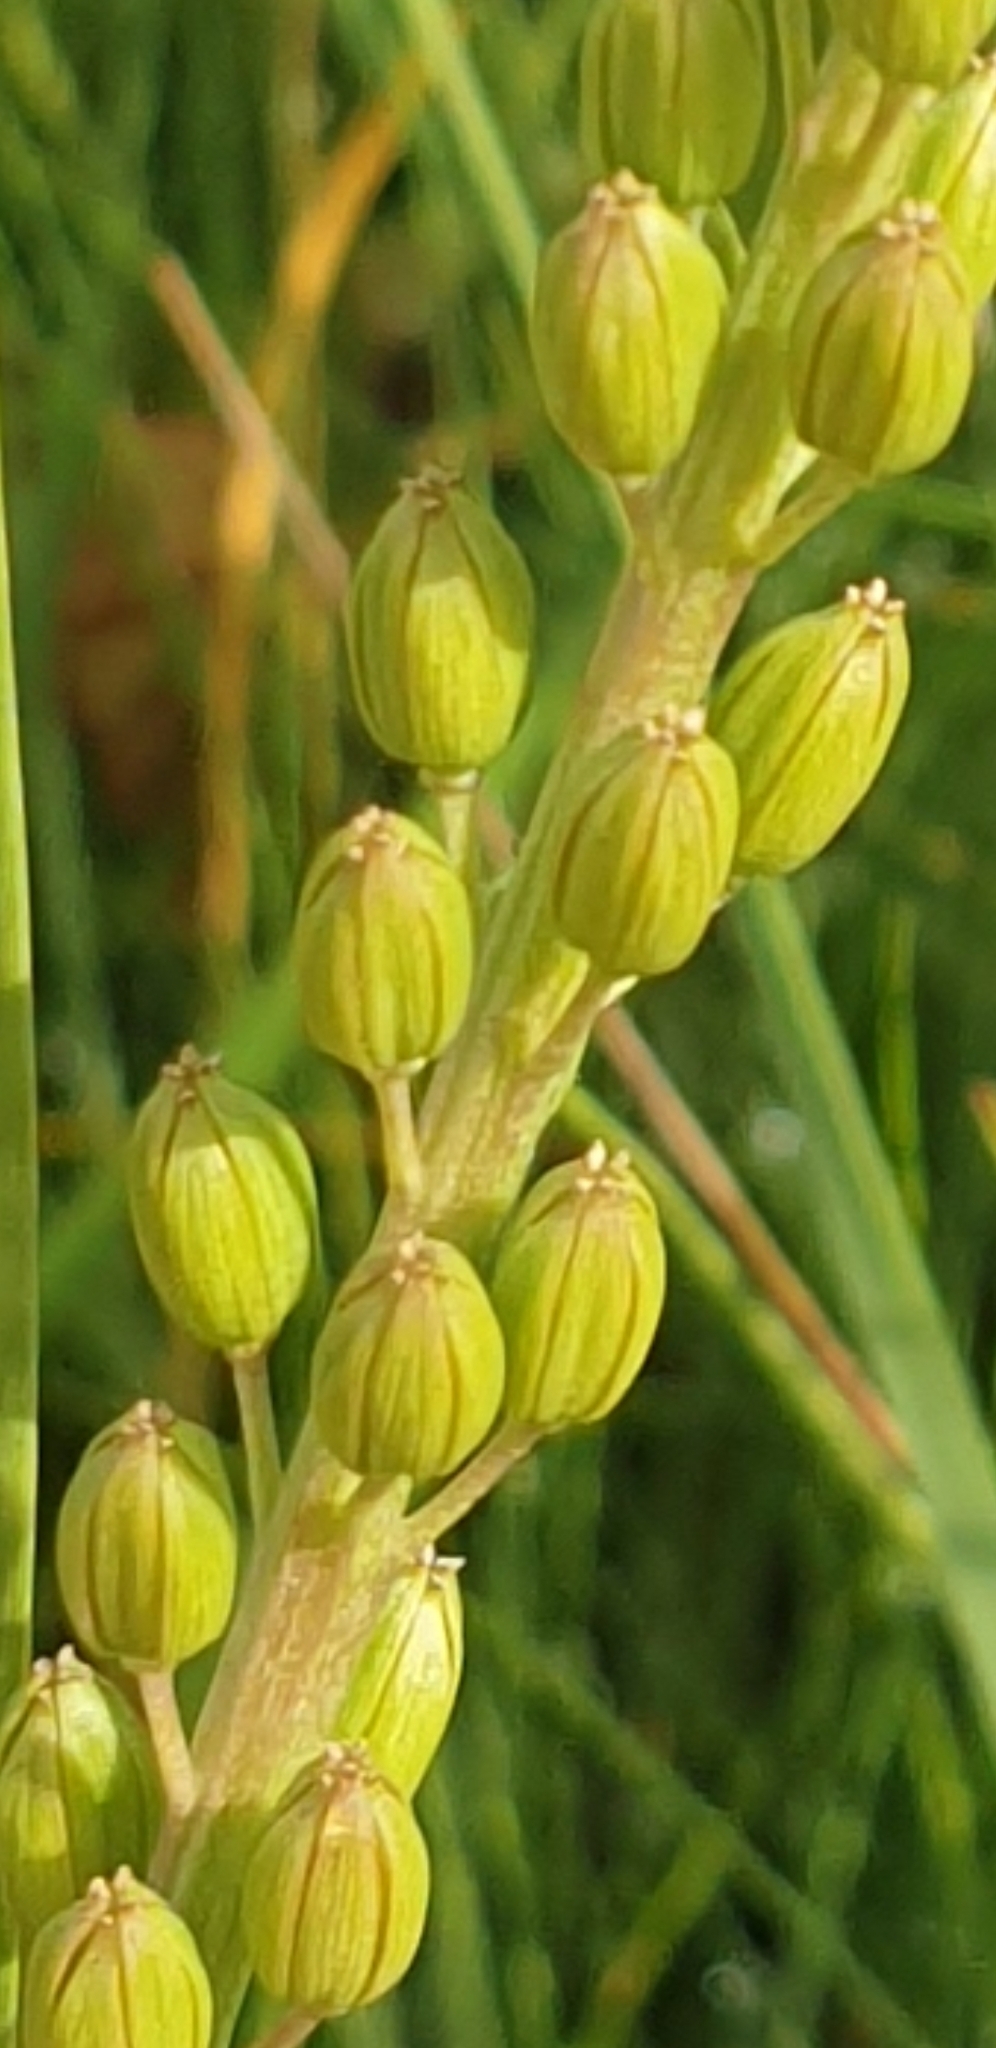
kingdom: Plantae
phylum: Tracheophyta
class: Liliopsida
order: Alismatales
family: Juncaginaceae
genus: Triglochin
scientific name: Triglochin maritima
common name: Sea arrowgrass
